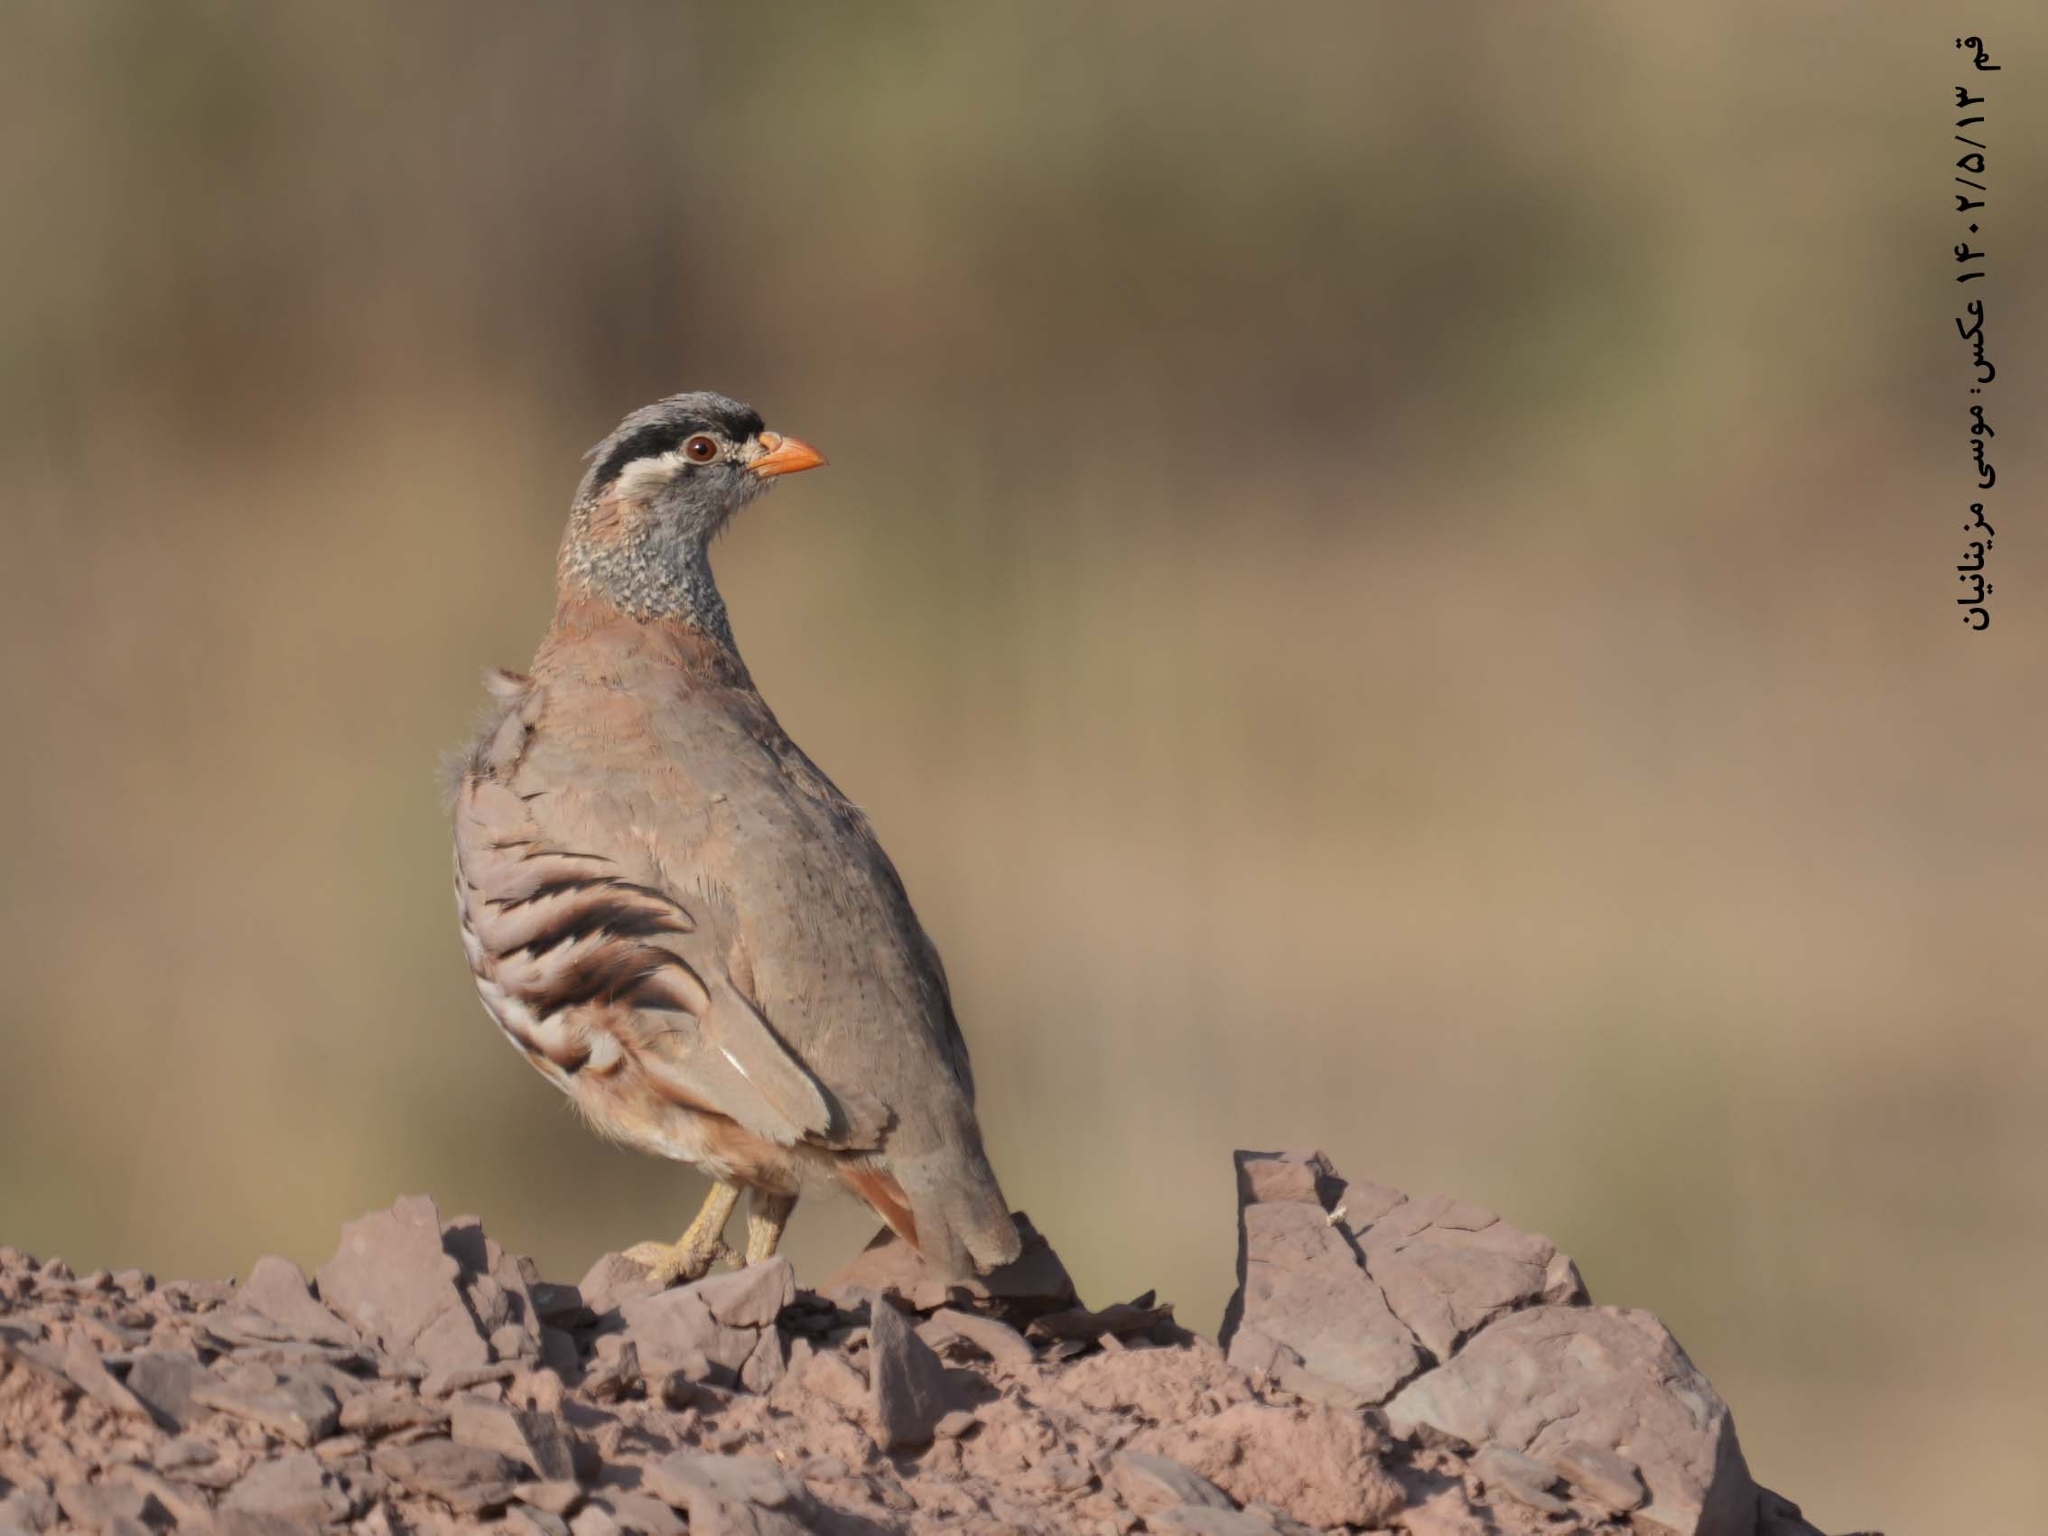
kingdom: Animalia
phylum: Chordata
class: Aves
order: Galliformes
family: Phasianidae
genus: Ammoperdix
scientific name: Ammoperdix griseogularis
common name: See-see partridge
